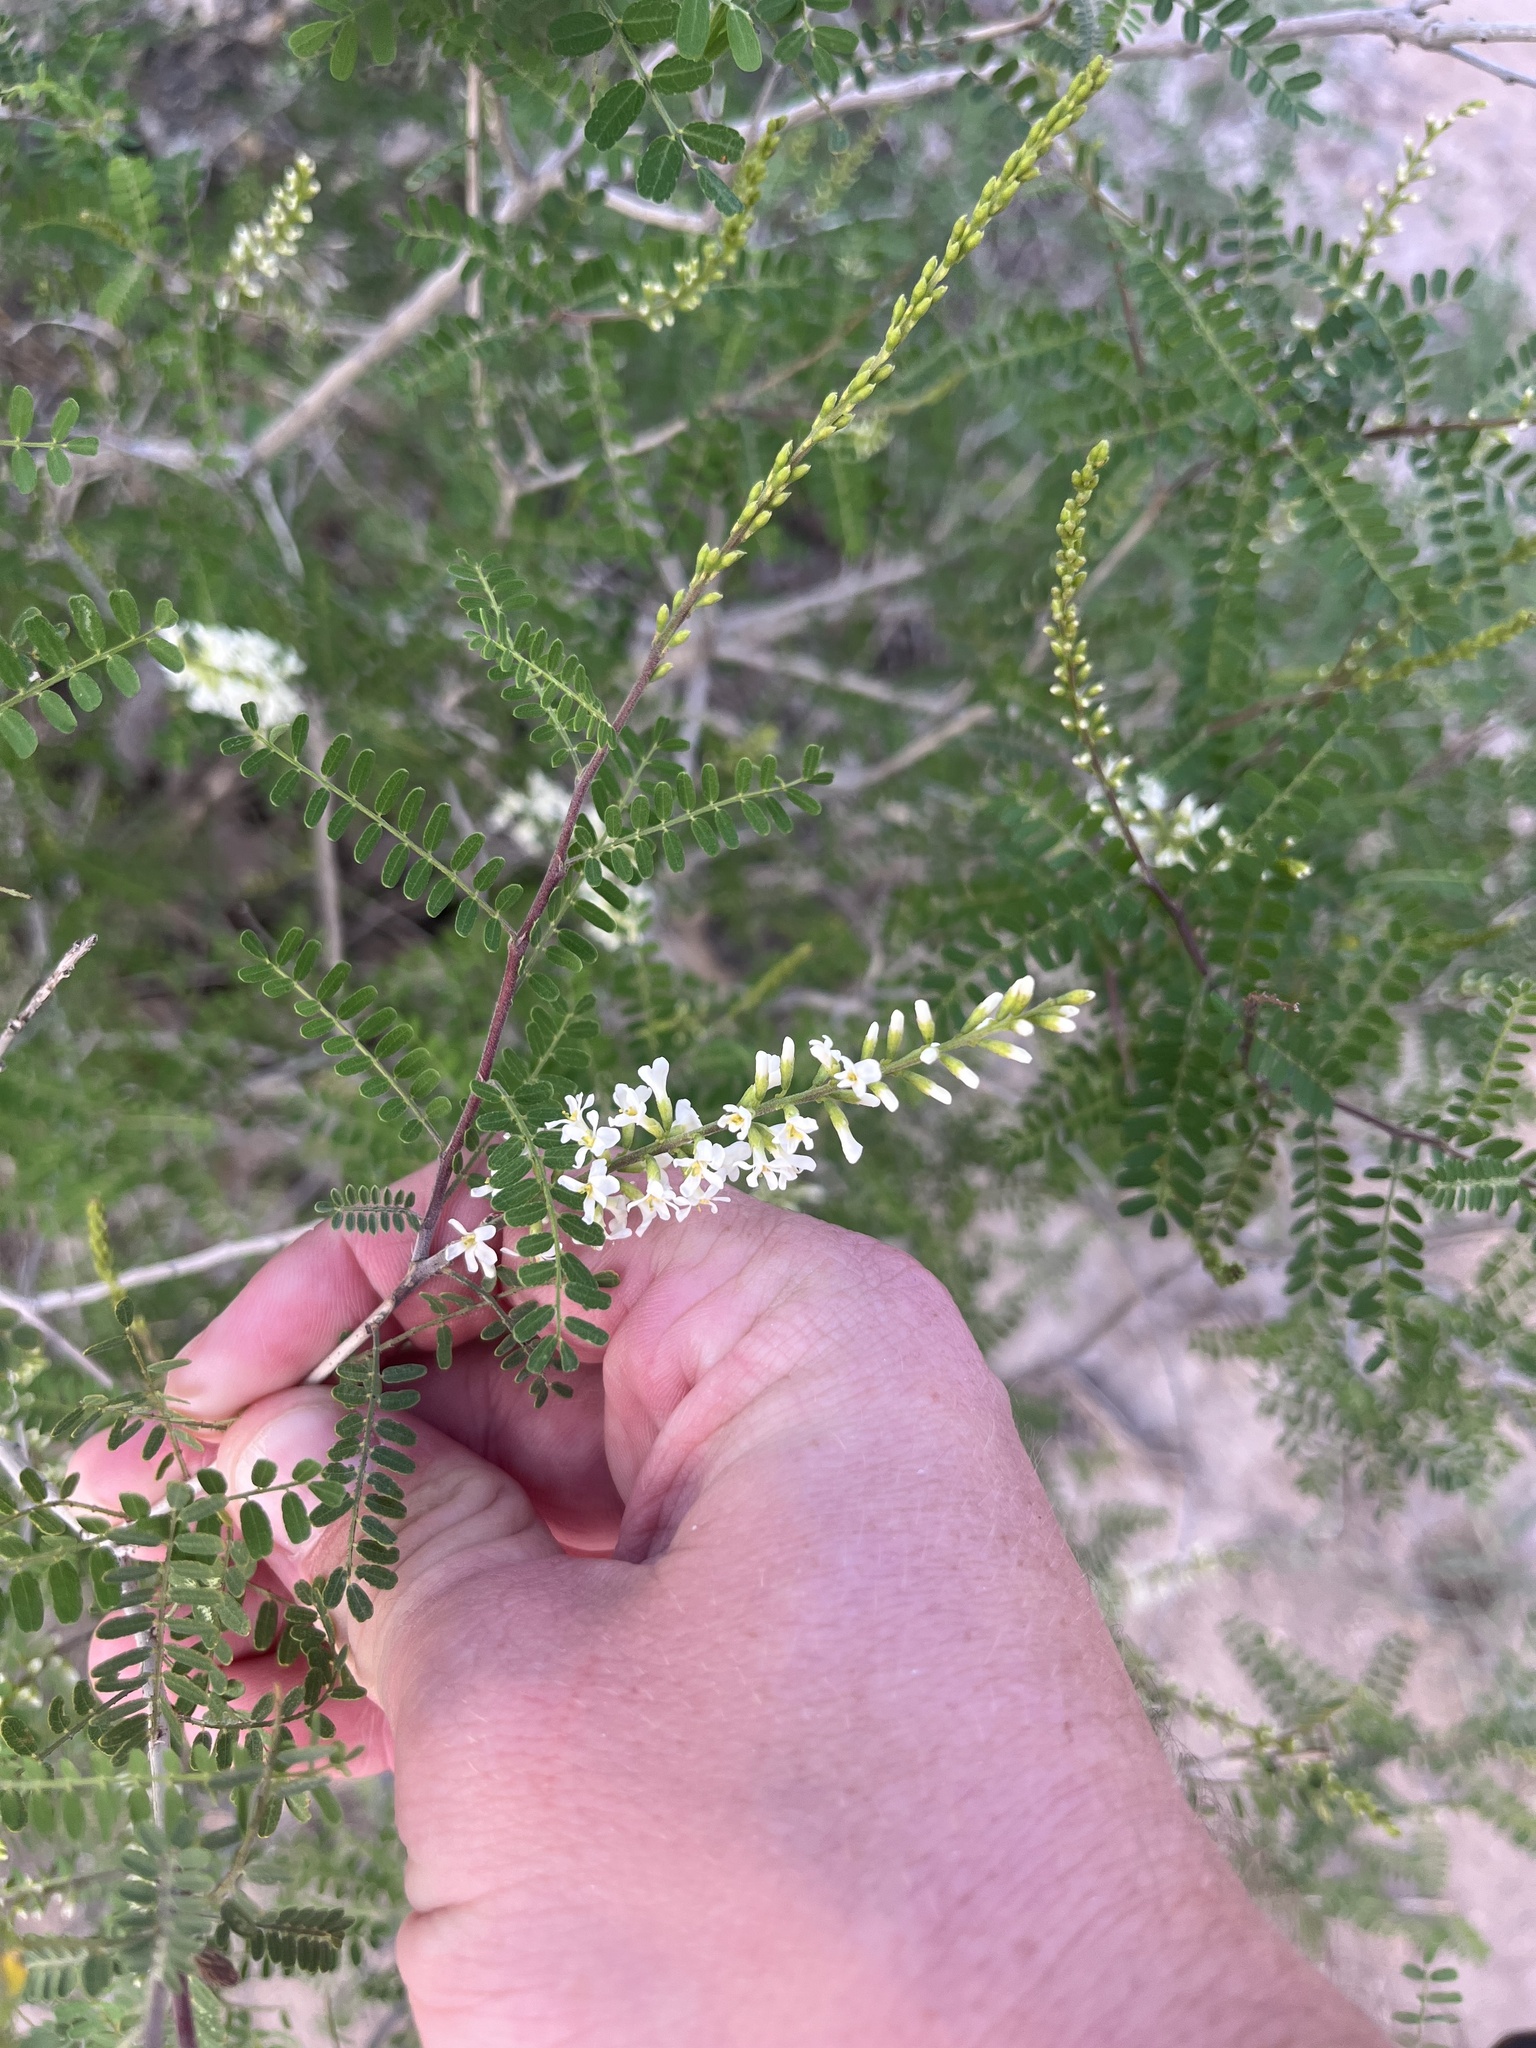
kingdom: Plantae
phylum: Tracheophyta
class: Magnoliopsida
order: Fabales
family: Fabaceae
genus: Eysenhardtia
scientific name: Eysenhardtia texana
